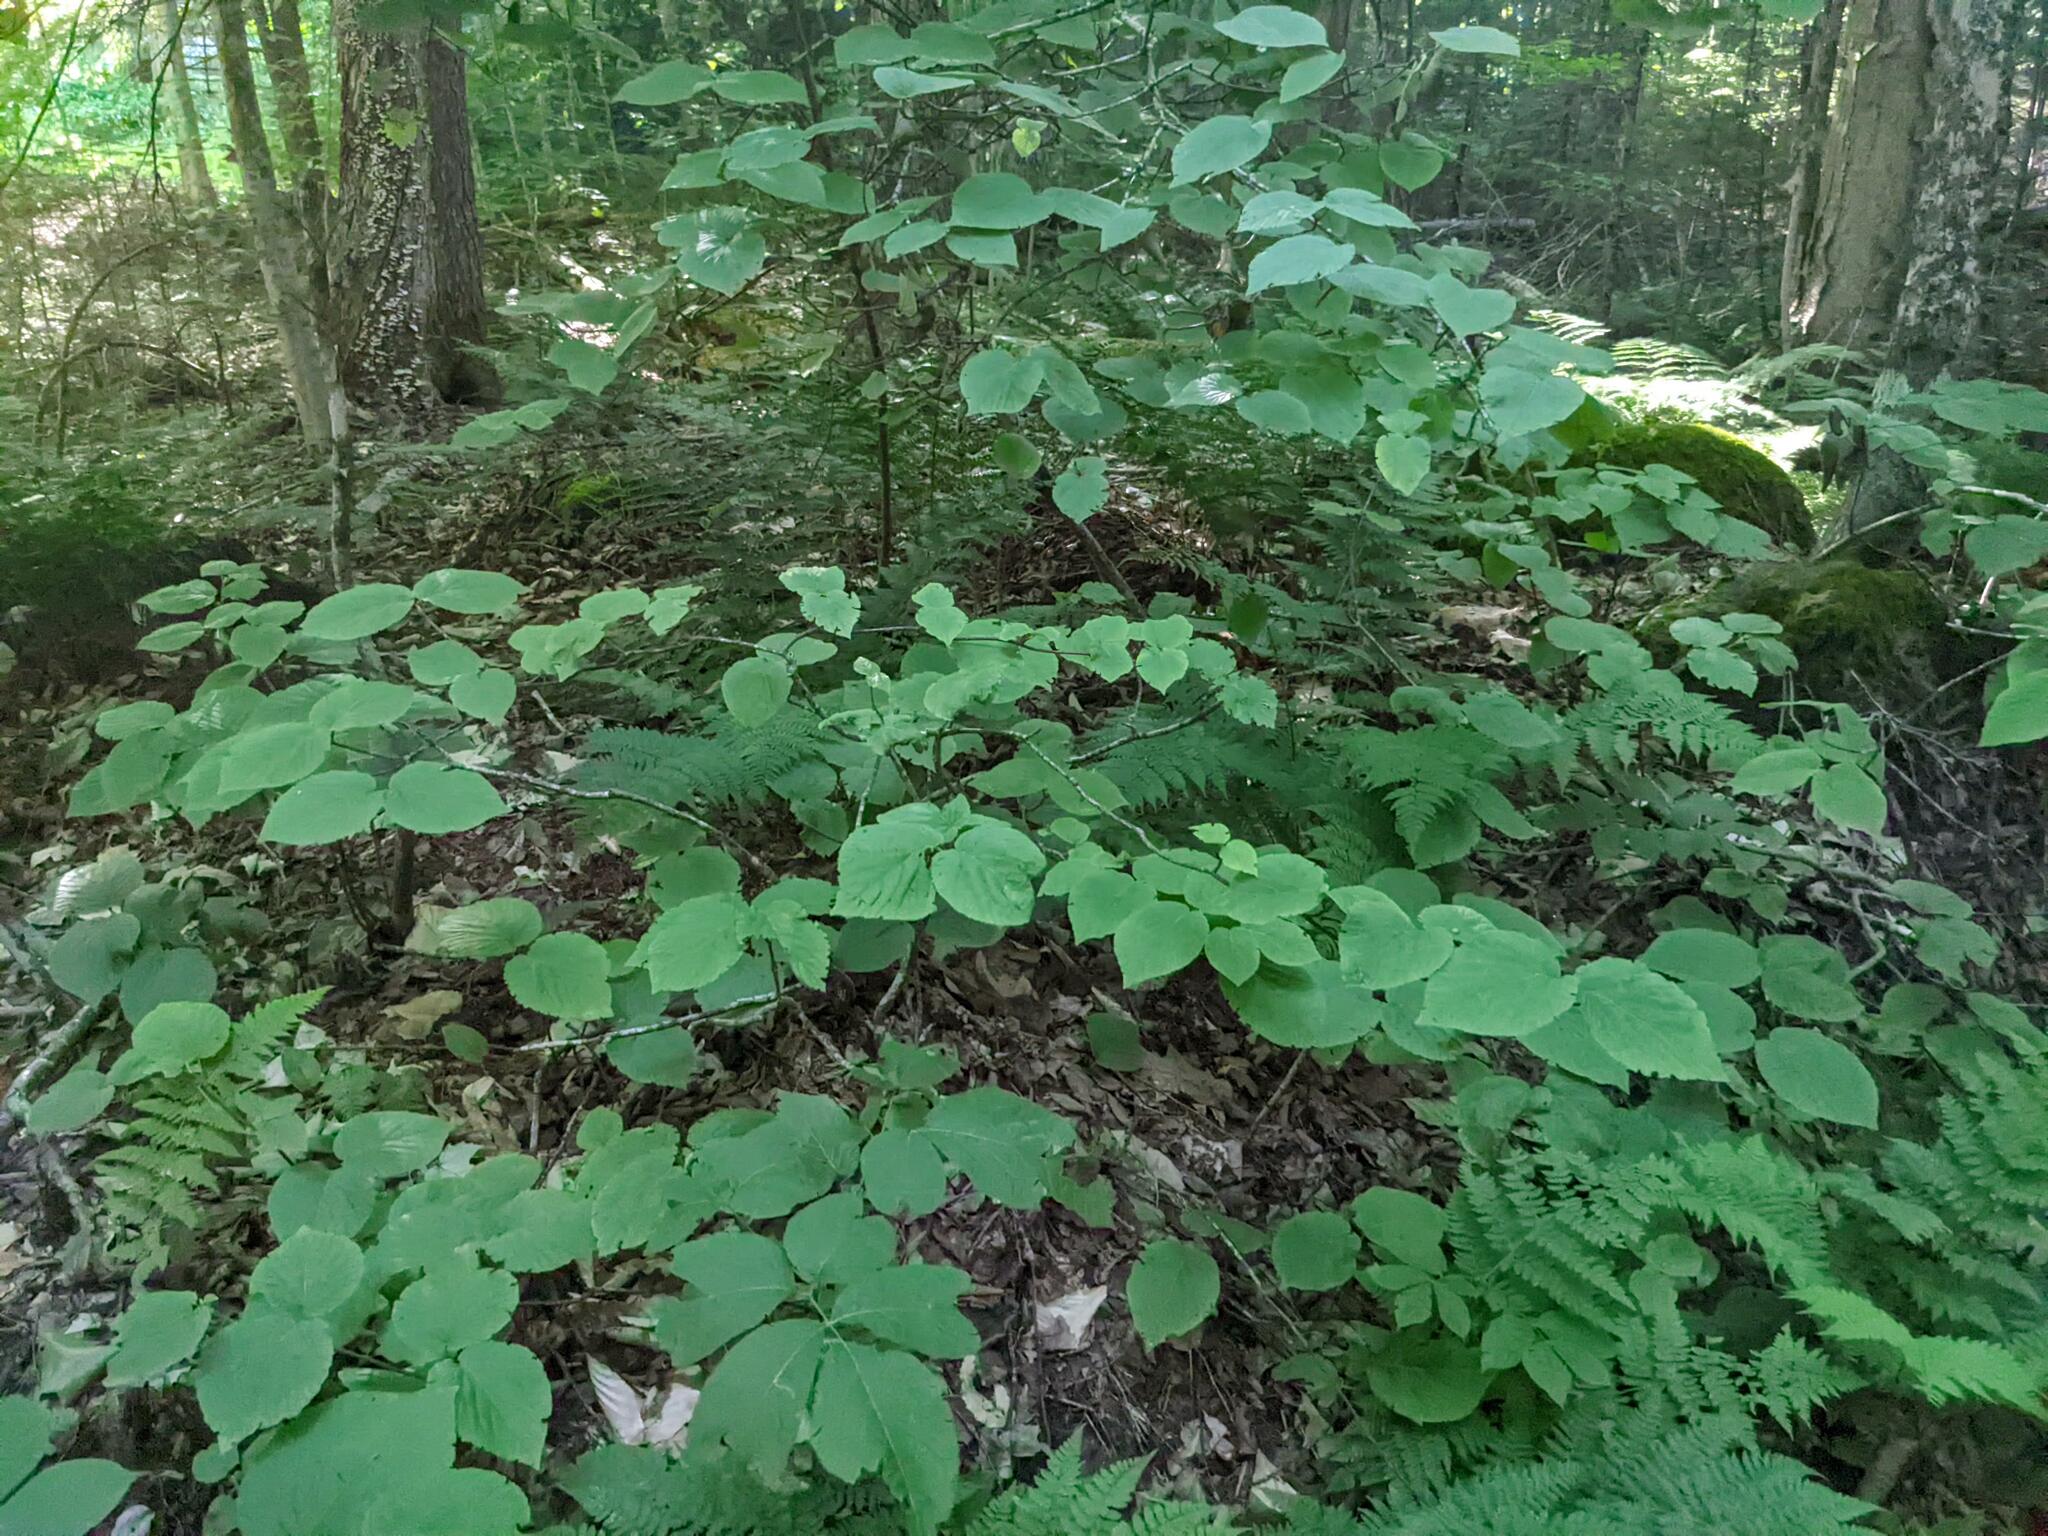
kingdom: Plantae
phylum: Tracheophyta
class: Magnoliopsida
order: Dipsacales
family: Viburnaceae
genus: Viburnum
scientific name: Viburnum lantanoides
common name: Hobblebush
